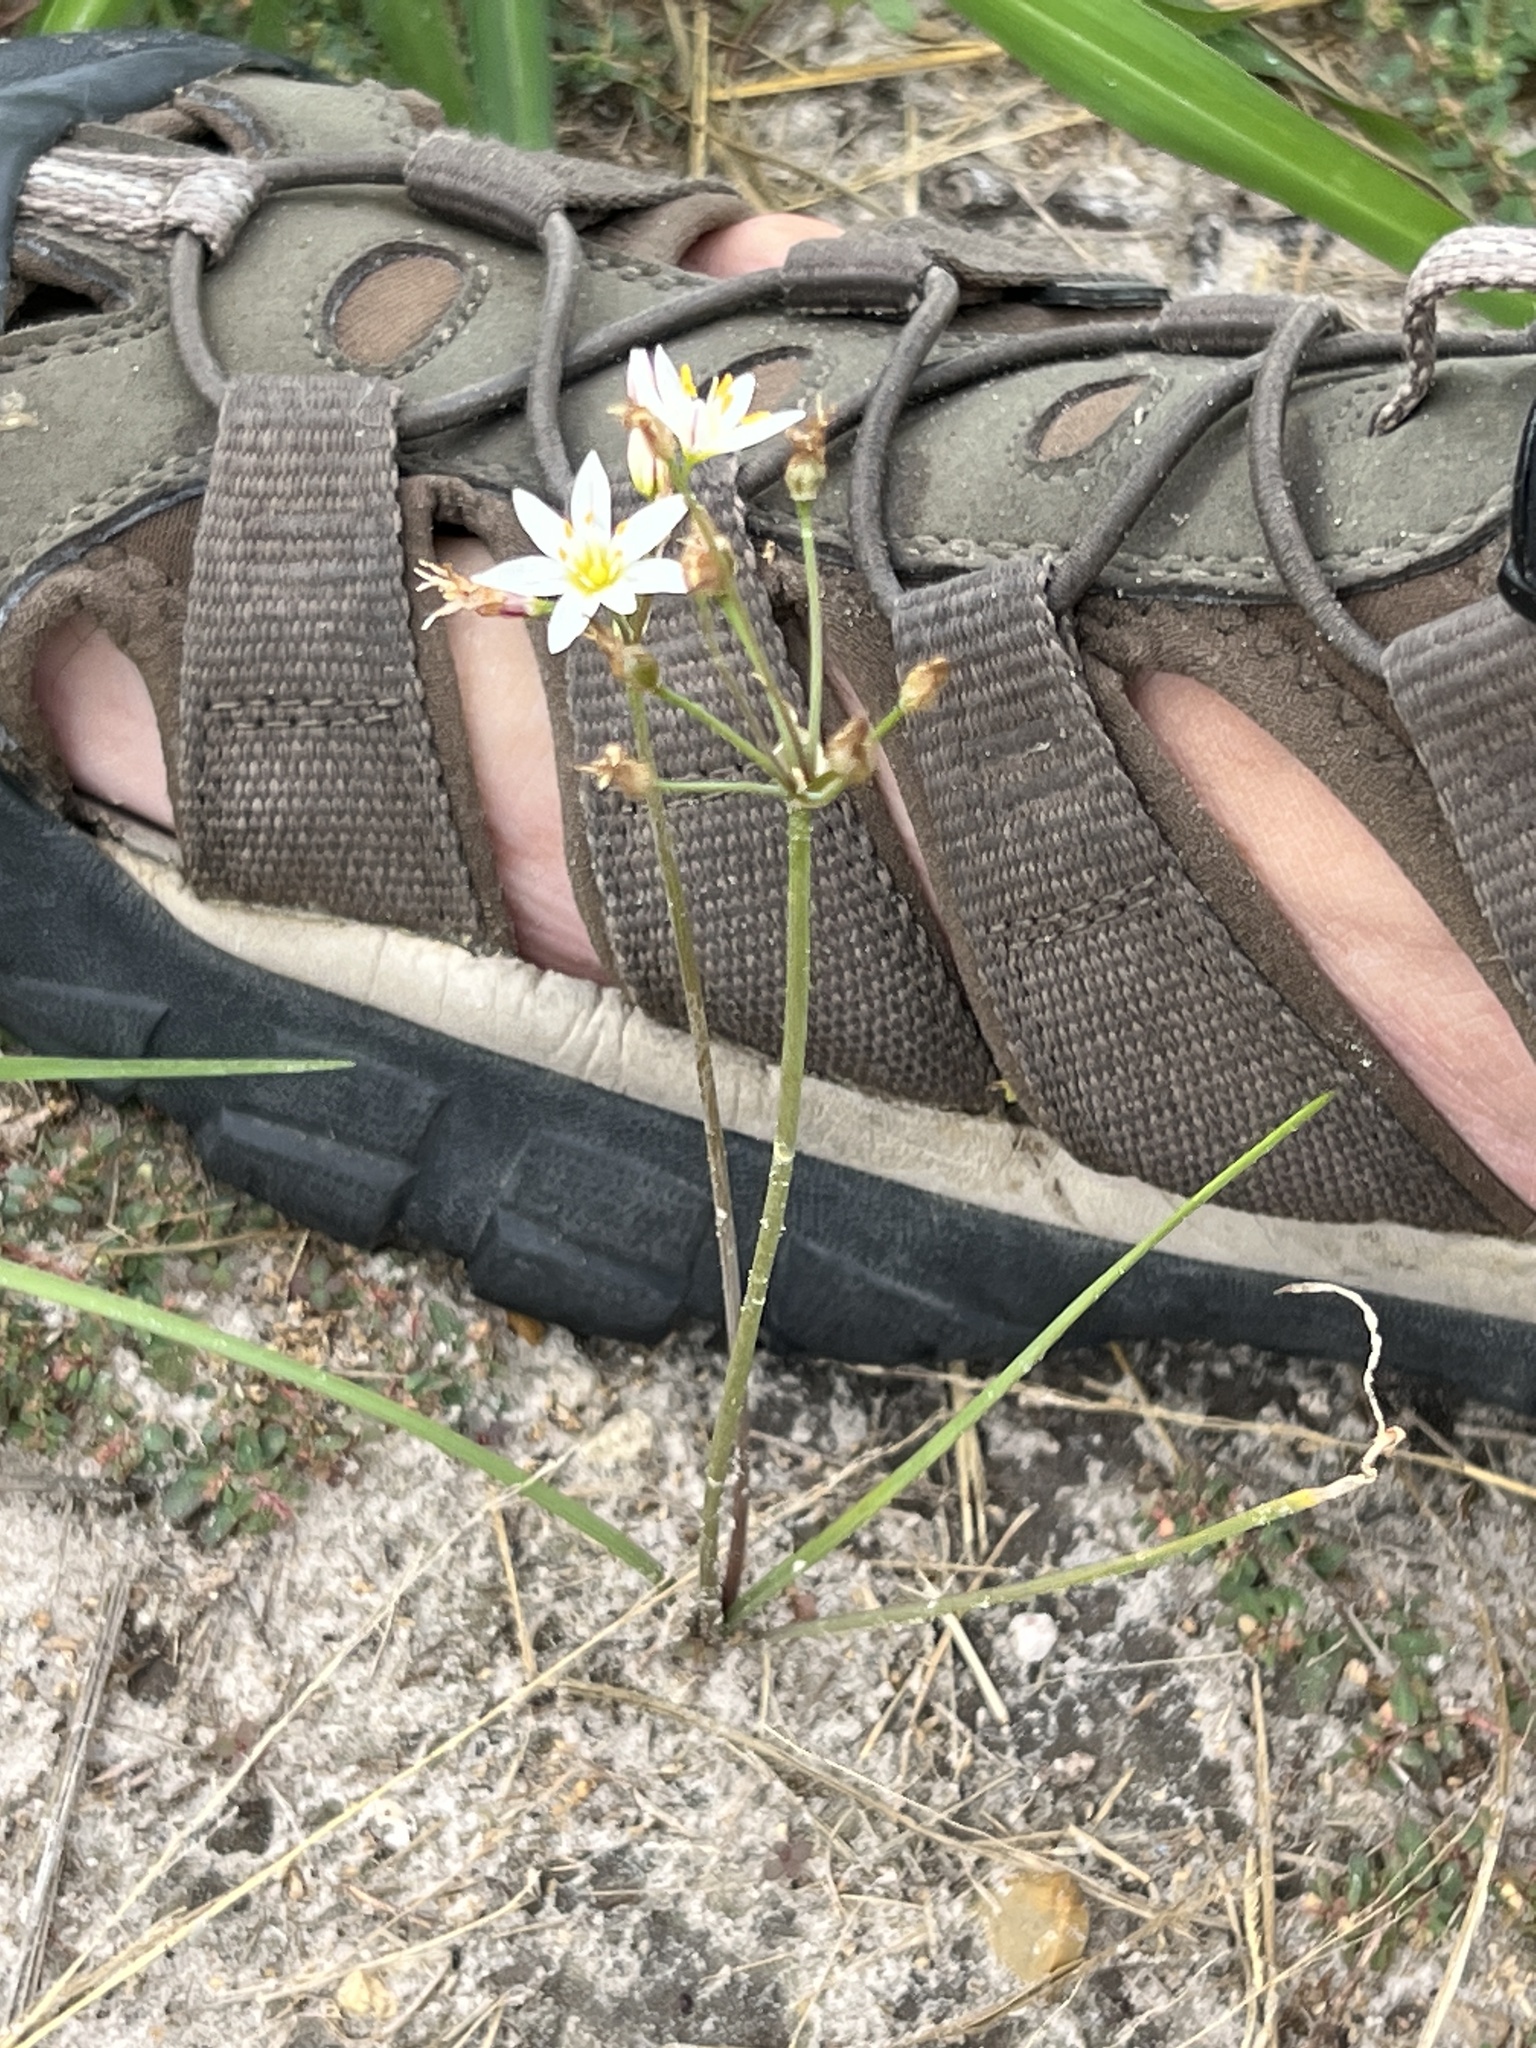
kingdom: Plantae
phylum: Tracheophyta
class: Liliopsida
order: Asparagales
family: Amaryllidaceae
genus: Nothoscordum
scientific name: Nothoscordum bivalve
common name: Crow-poison
